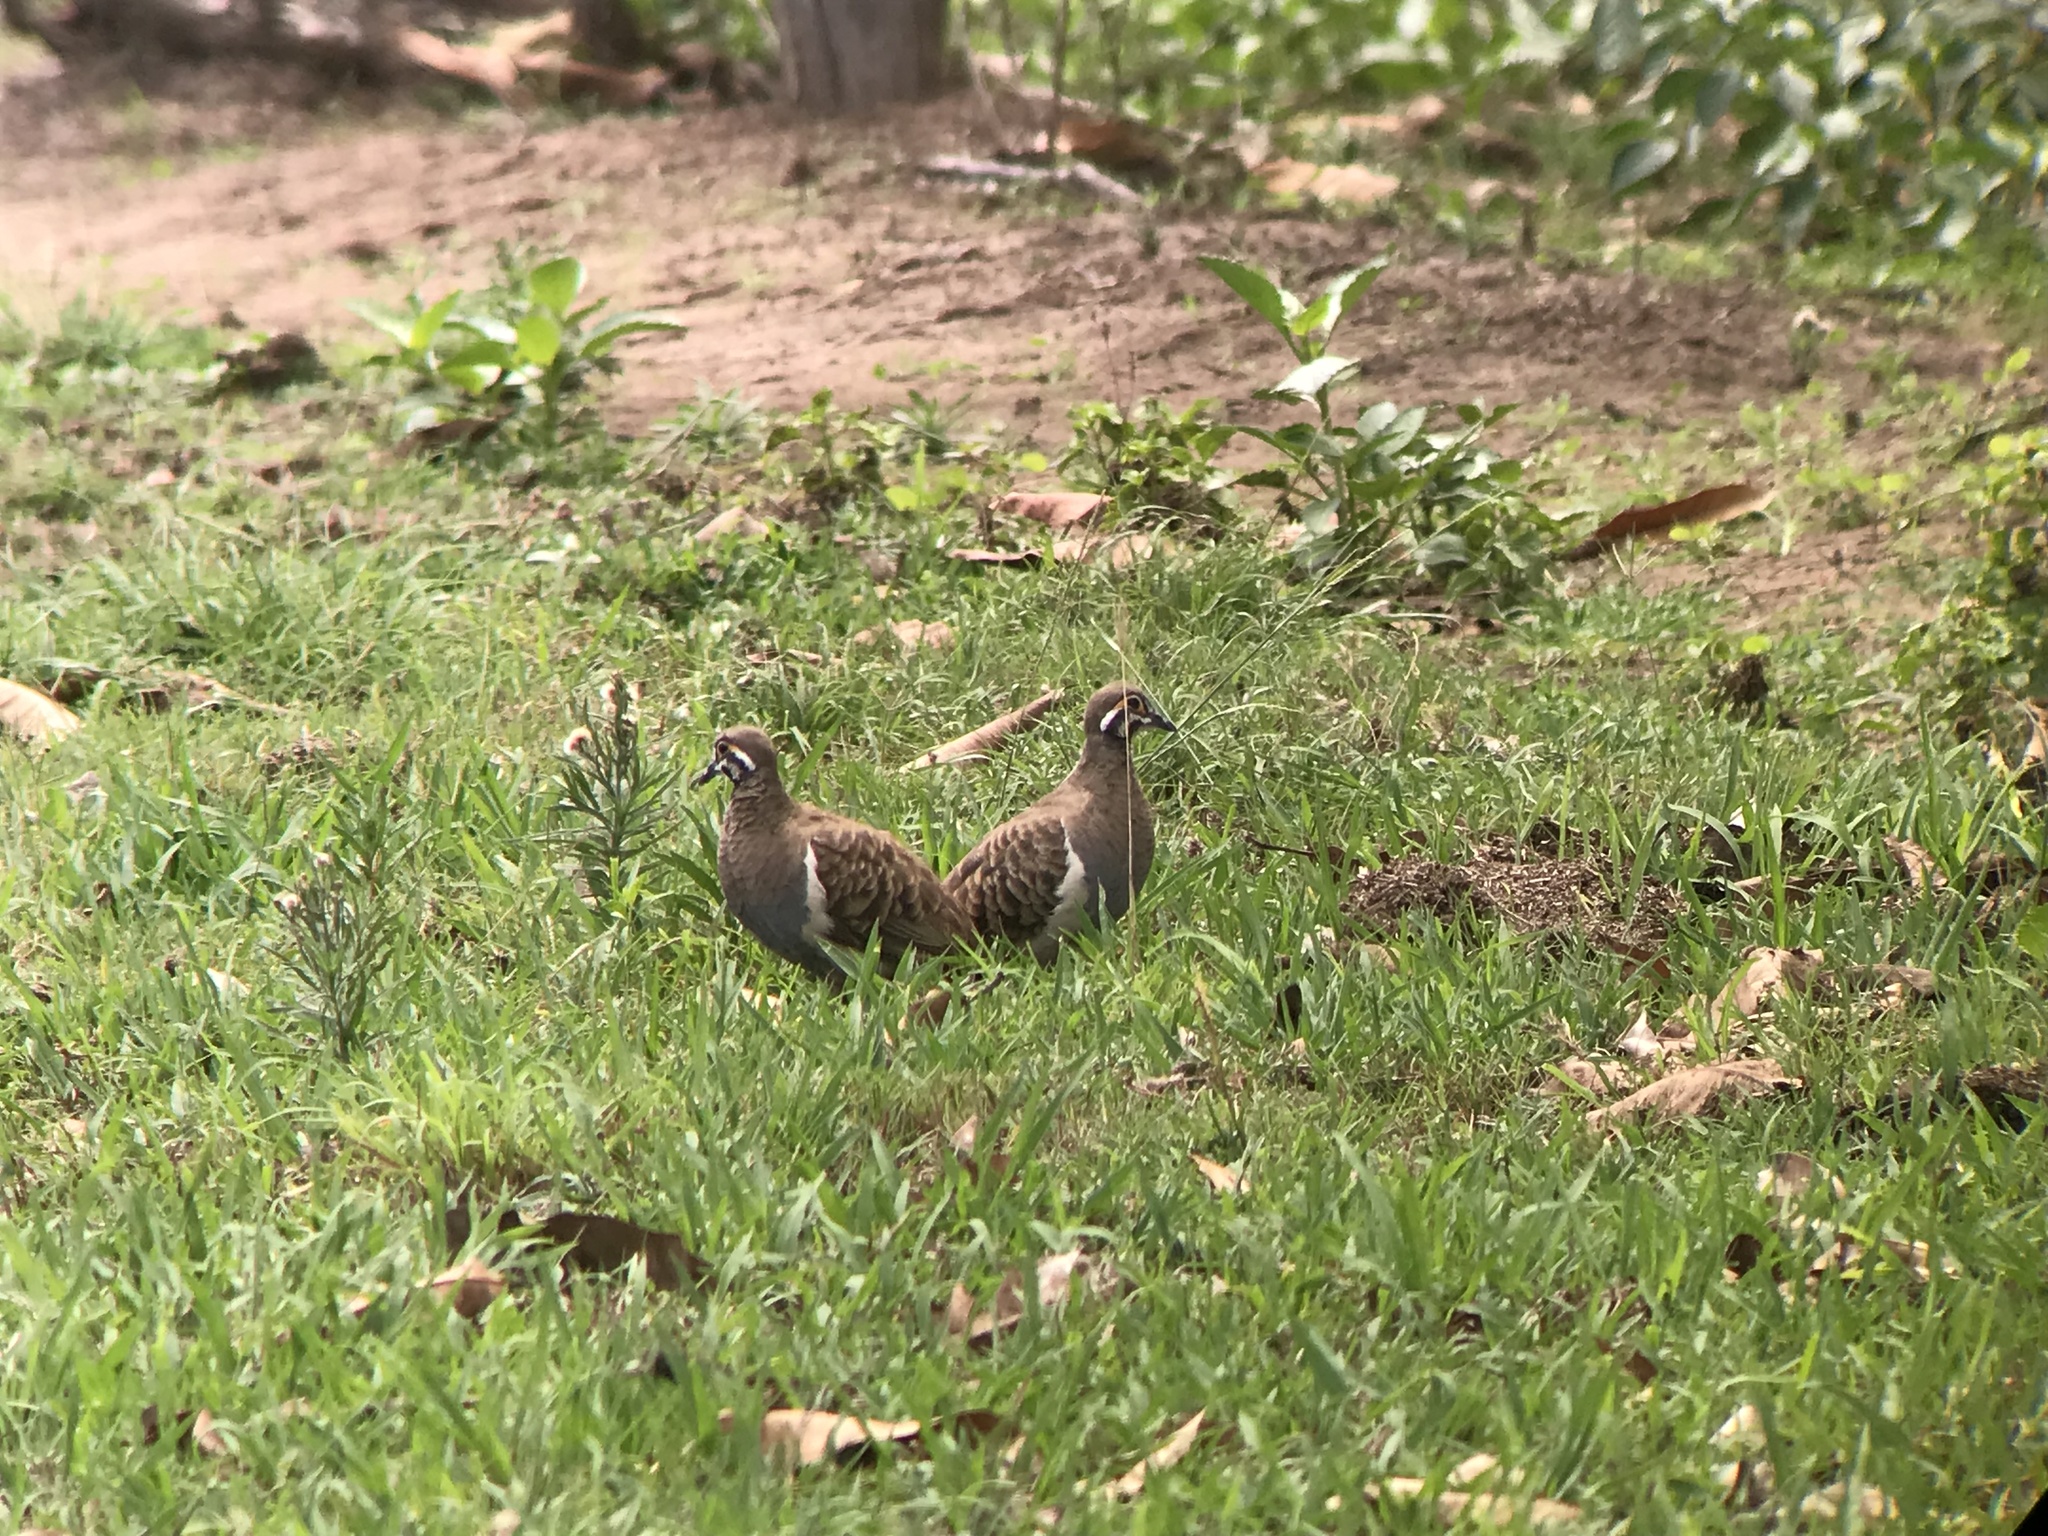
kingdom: Animalia
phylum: Chordata
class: Aves
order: Columbiformes
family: Columbidae
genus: Geophaps
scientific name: Geophaps scripta
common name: Squatter pigeon
